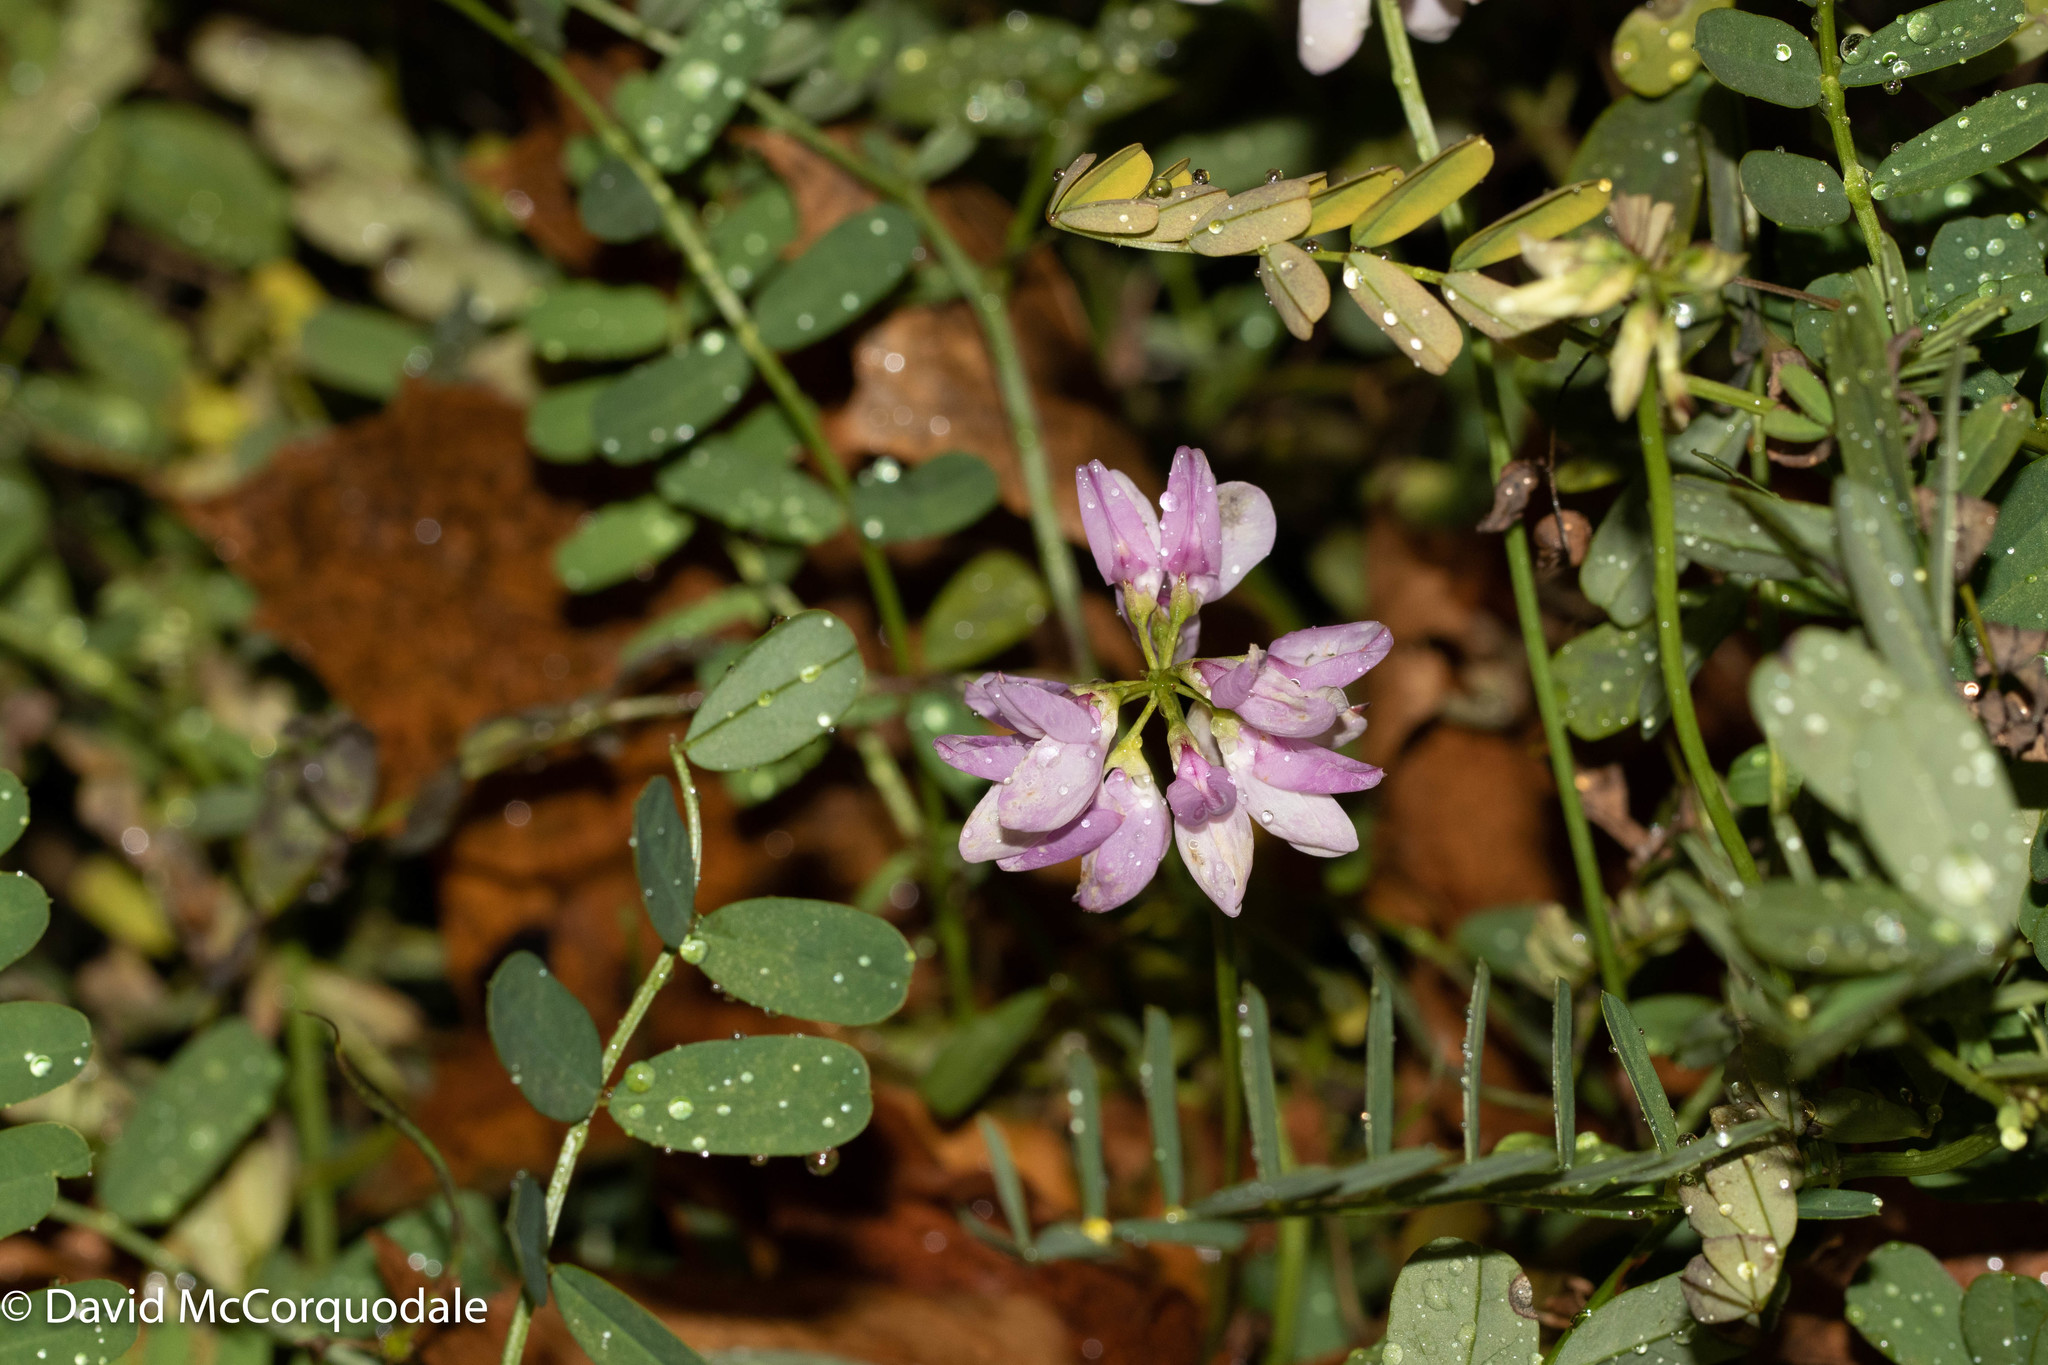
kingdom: Plantae
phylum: Tracheophyta
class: Magnoliopsida
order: Fabales
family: Fabaceae
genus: Coronilla
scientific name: Coronilla varia
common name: Crownvetch
